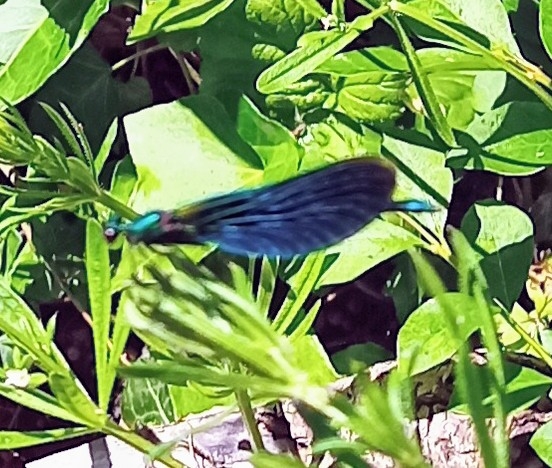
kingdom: Animalia
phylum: Arthropoda
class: Insecta
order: Odonata
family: Calopterygidae
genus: Calopteryx
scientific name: Calopteryx virgo
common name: Beautiful demoiselle
